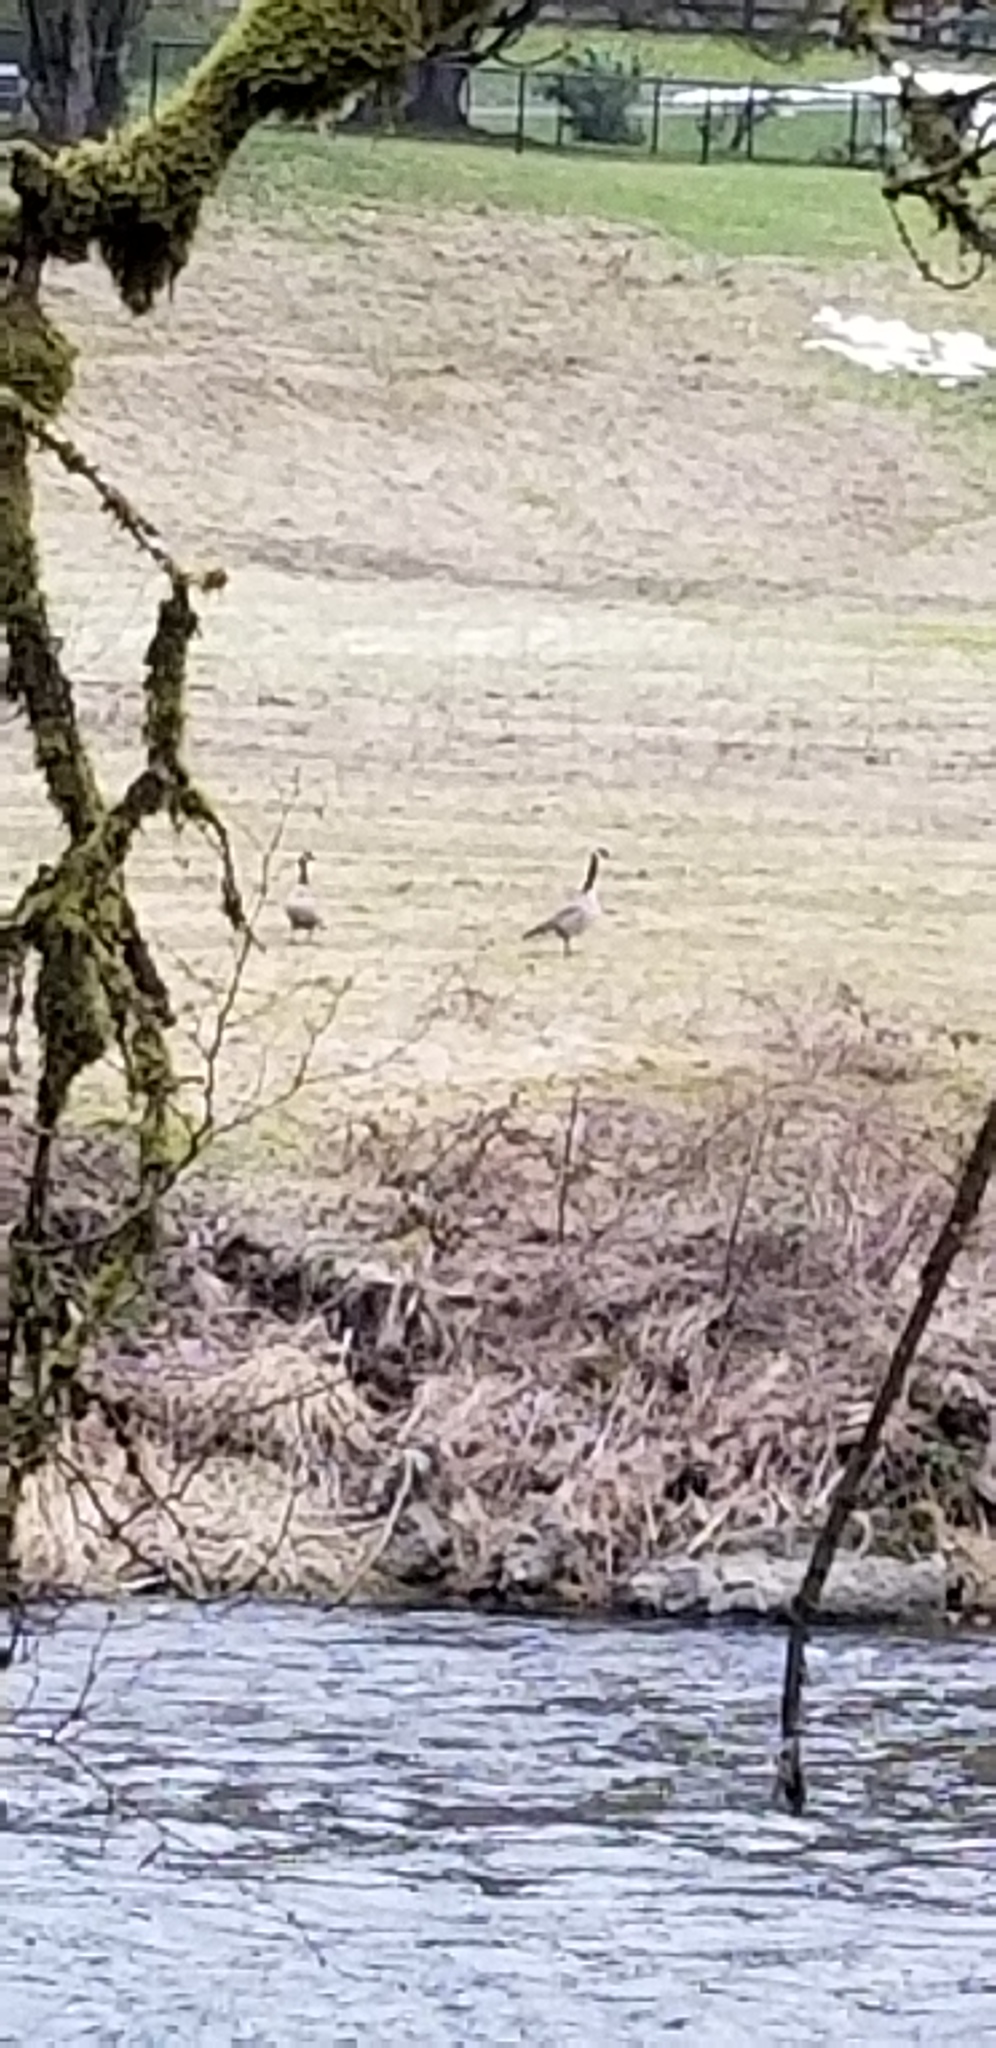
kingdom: Animalia
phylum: Chordata
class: Aves
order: Anseriformes
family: Anatidae
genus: Branta
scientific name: Branta canadensis
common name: Canada goose
